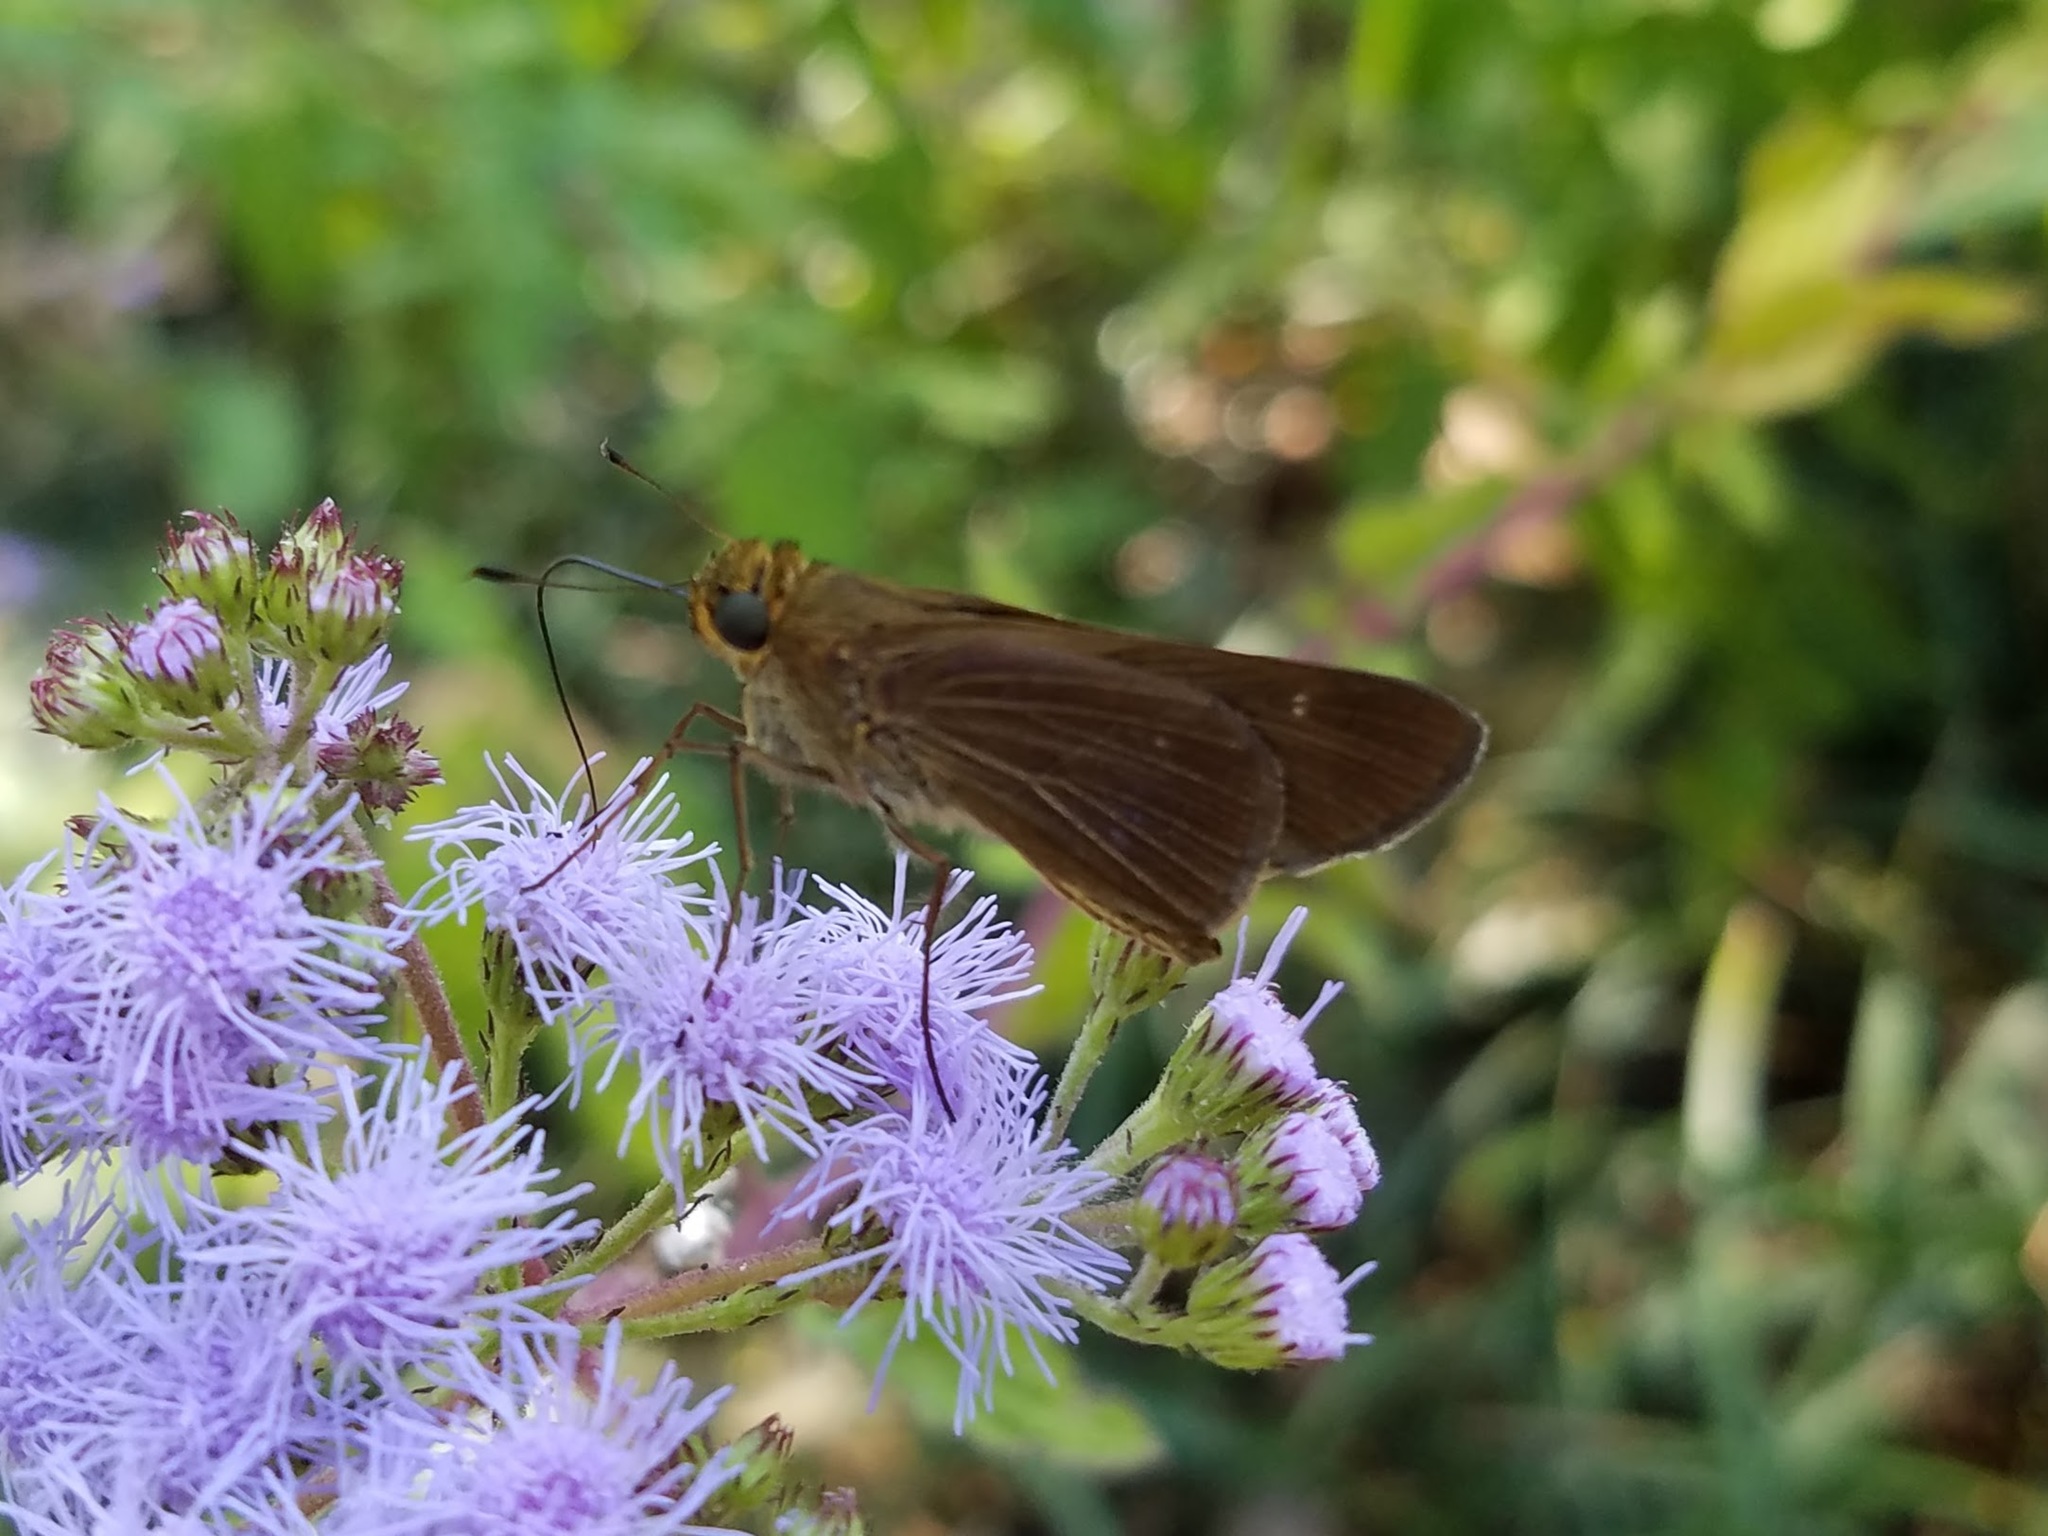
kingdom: Animalia
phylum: Arthropoda
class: Insecta
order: Lepidoptera
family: Hesperiidae
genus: Panoquina
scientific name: Panoquina ocola
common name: Ocola skipper
